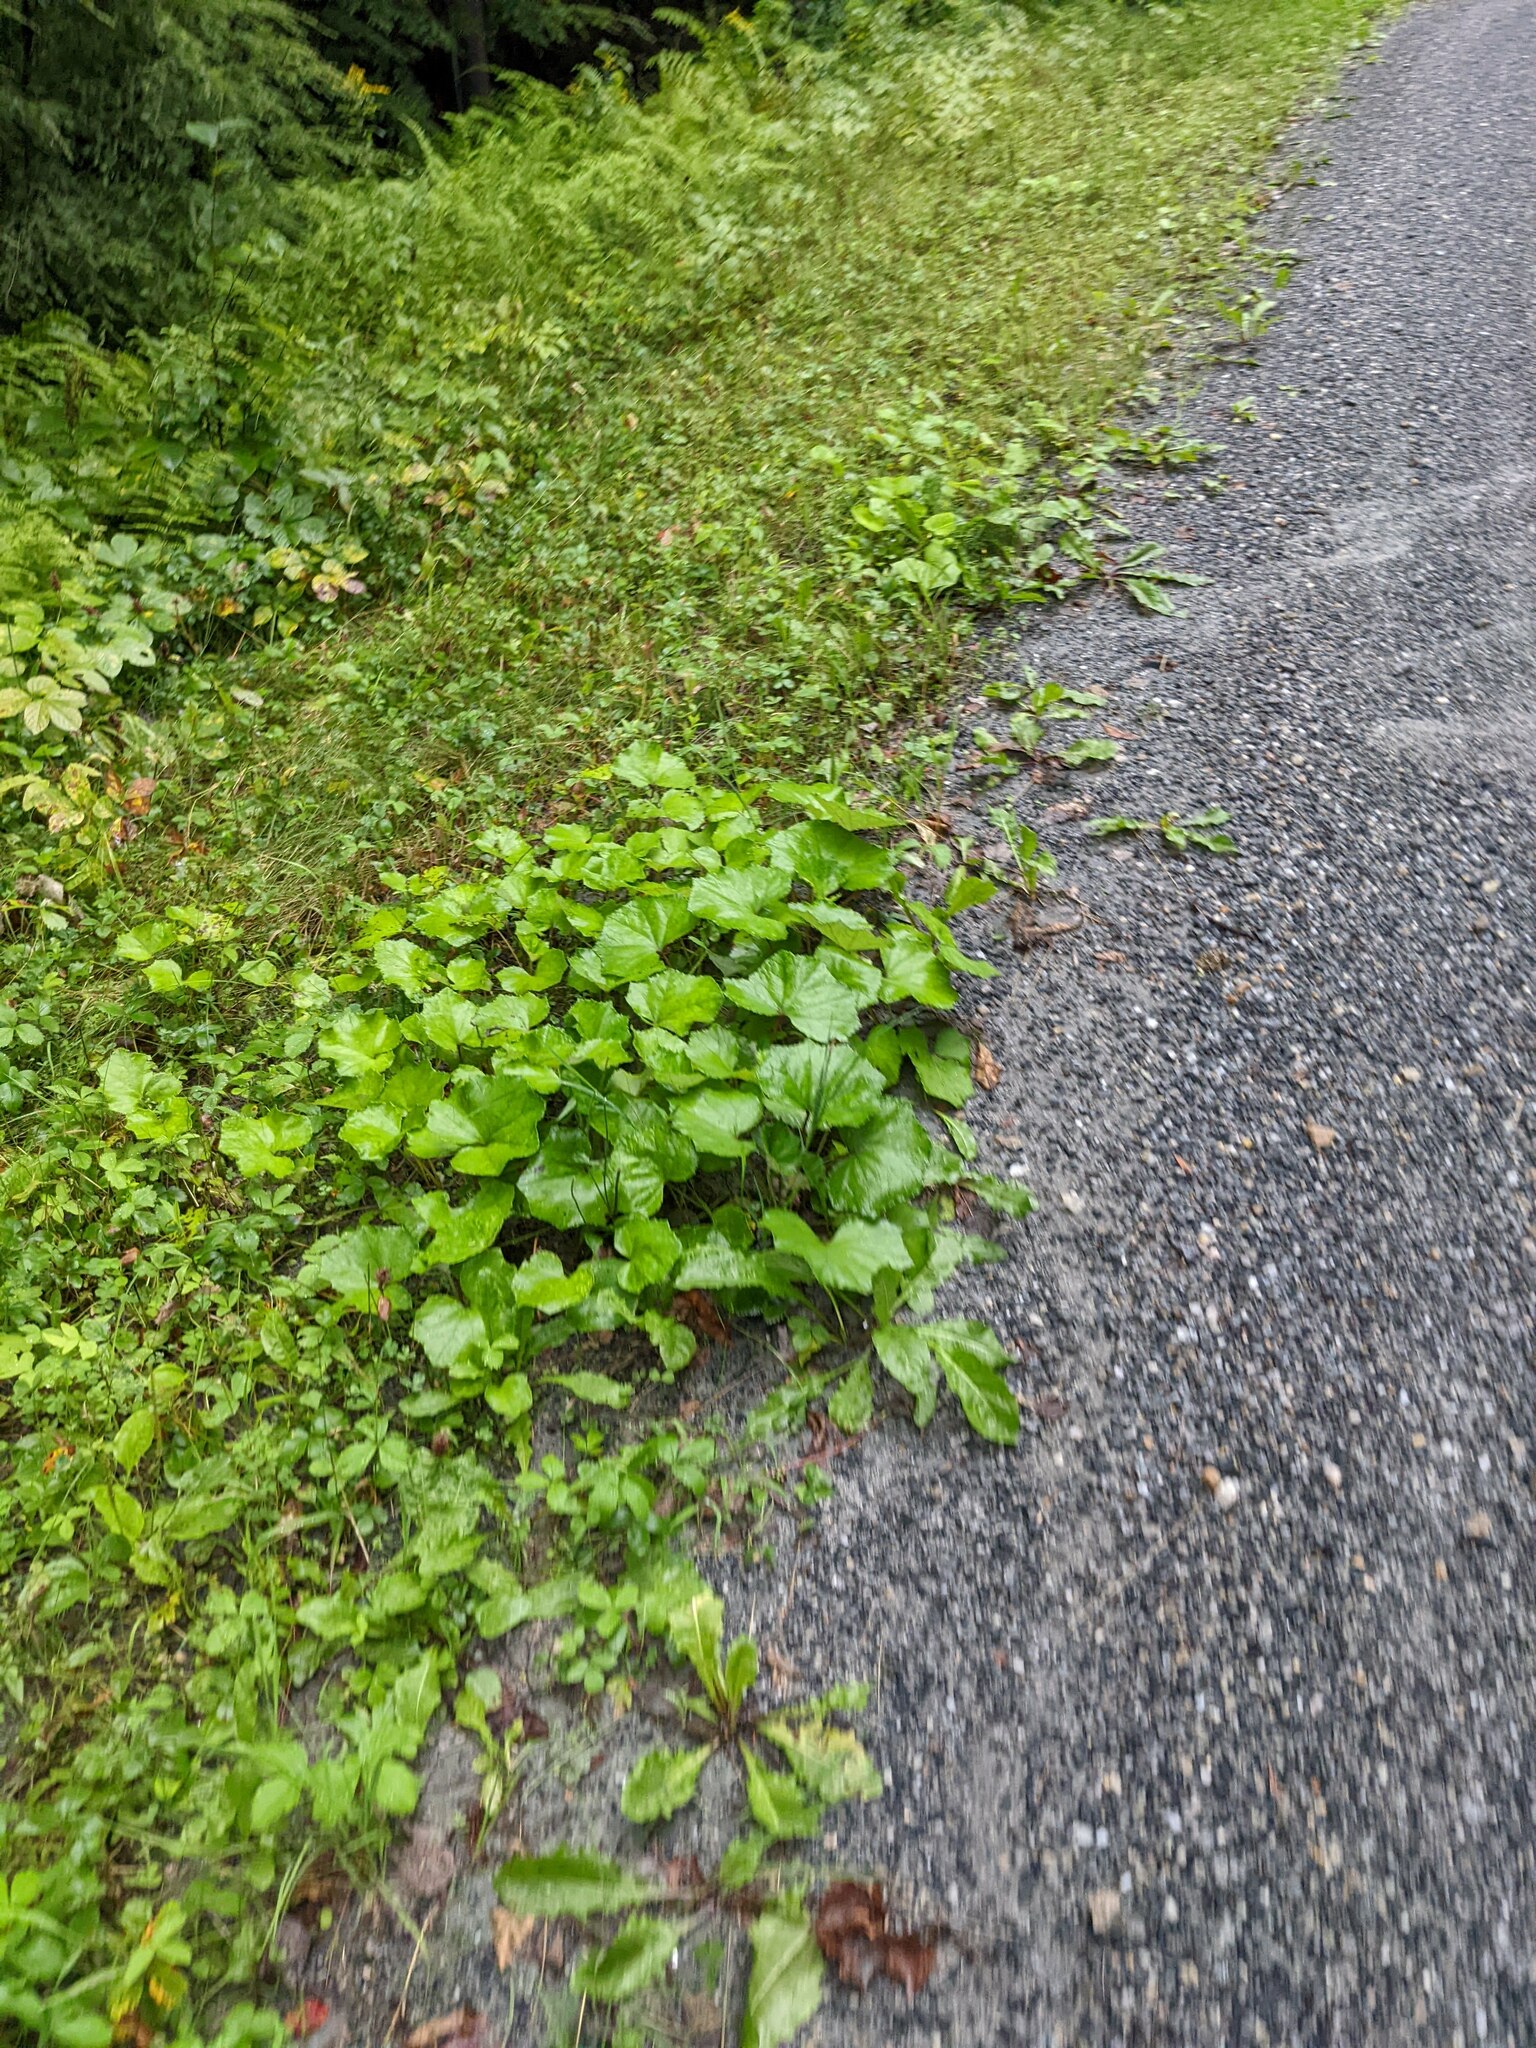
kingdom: Plantae
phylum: Tracheophyta
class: Magnoliopsida
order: Asterales
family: Asteraceae
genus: Tussilago
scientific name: Tussilago farfara
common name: Coltsfoot
